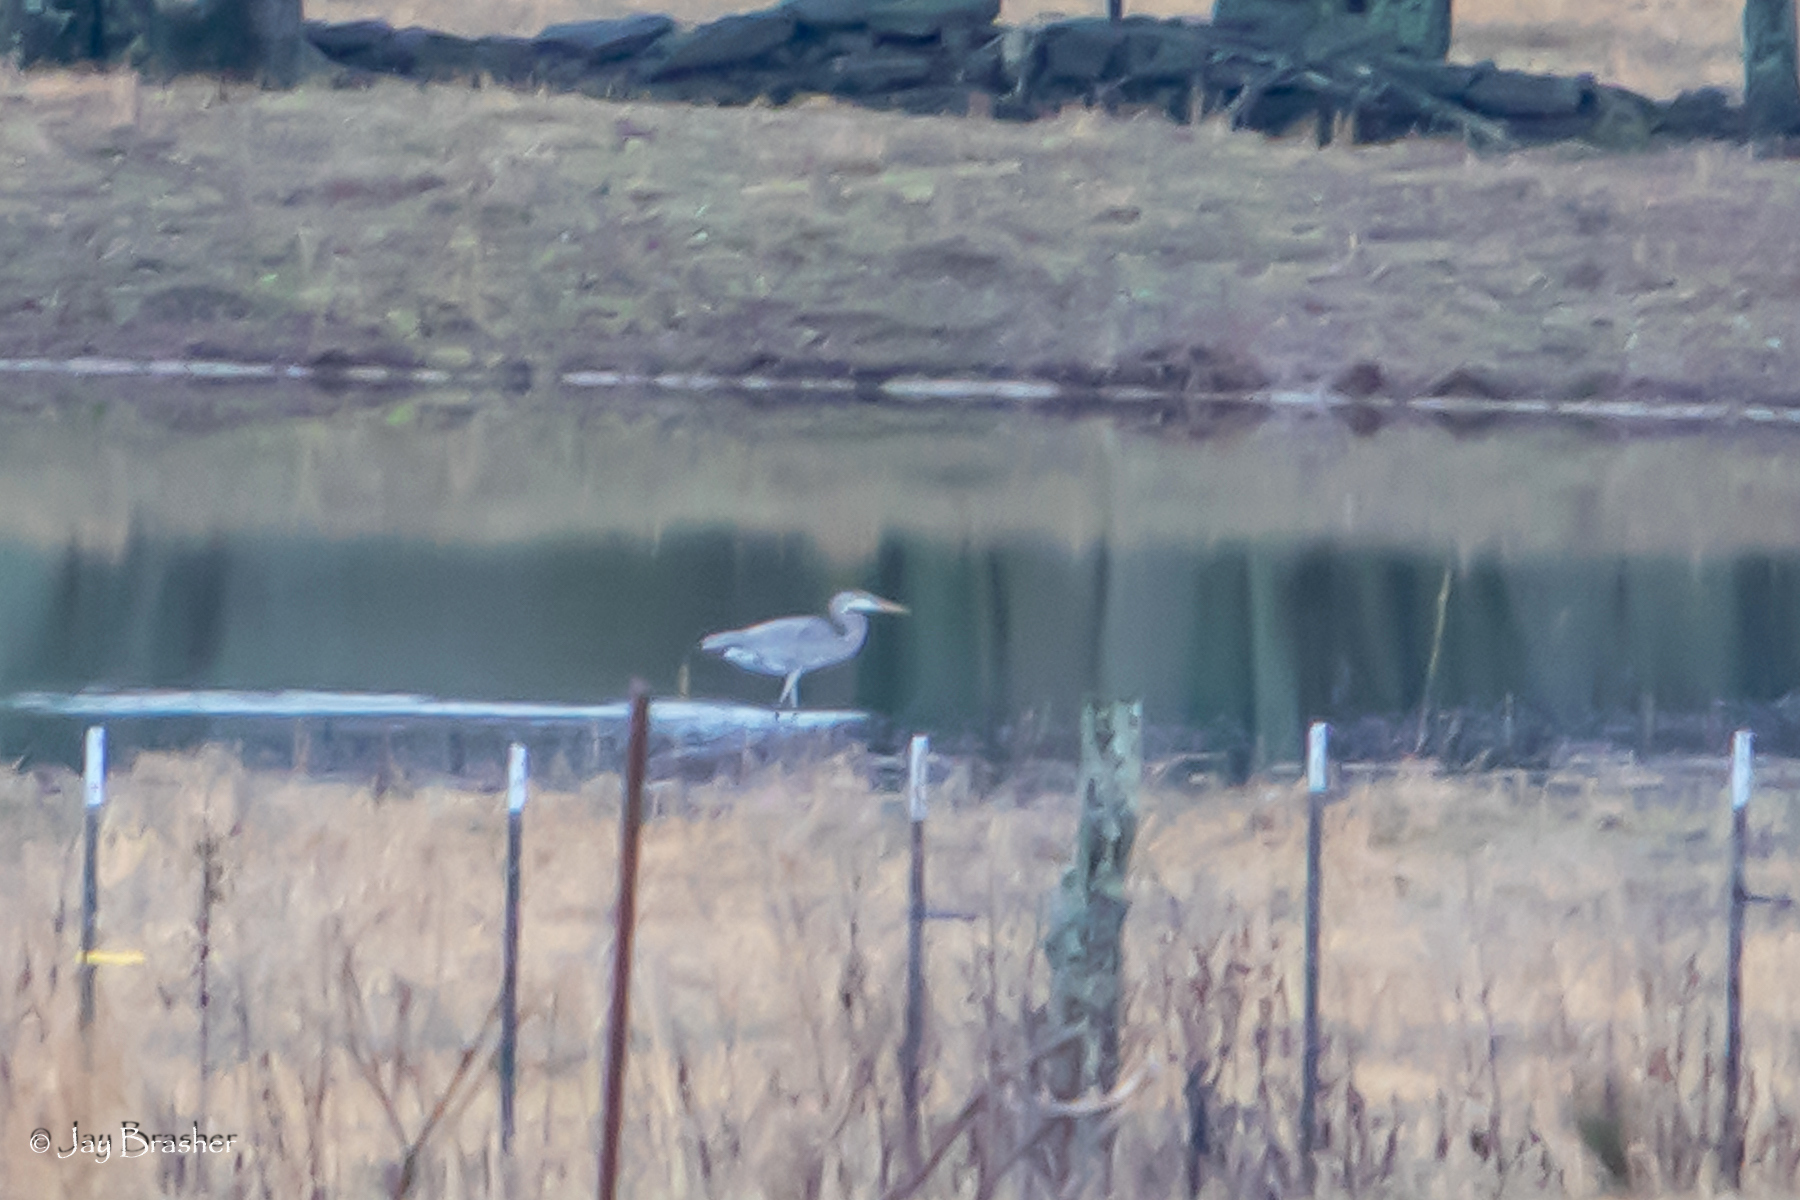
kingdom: Animalia
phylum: Chordata
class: Aves
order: Pelecaniformes
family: Ardeidae
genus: Ardea
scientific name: Ardea herodias
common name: Great blue heron
